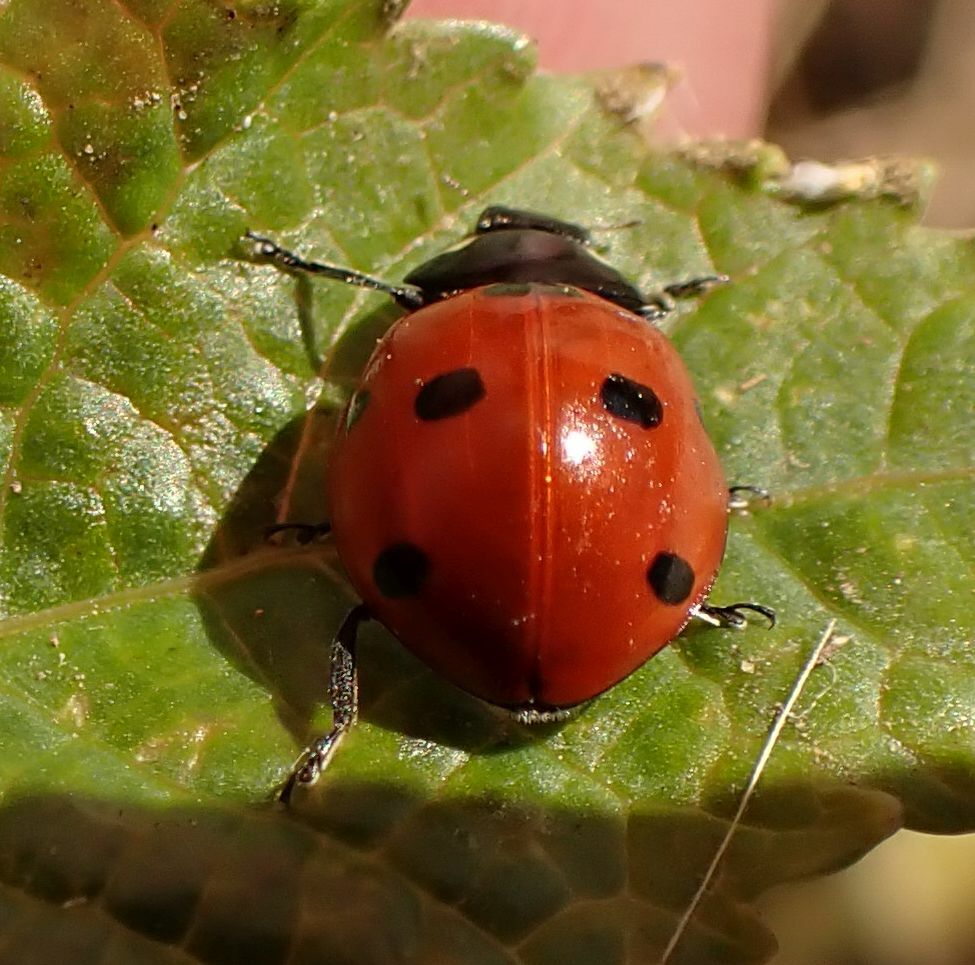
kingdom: Animalia
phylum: Arthropoda
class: Insecta
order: Coleoptera
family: Coccinellidae
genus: Coccinella
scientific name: Coccinella septempunctata
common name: Sevenspotted lady beetle
